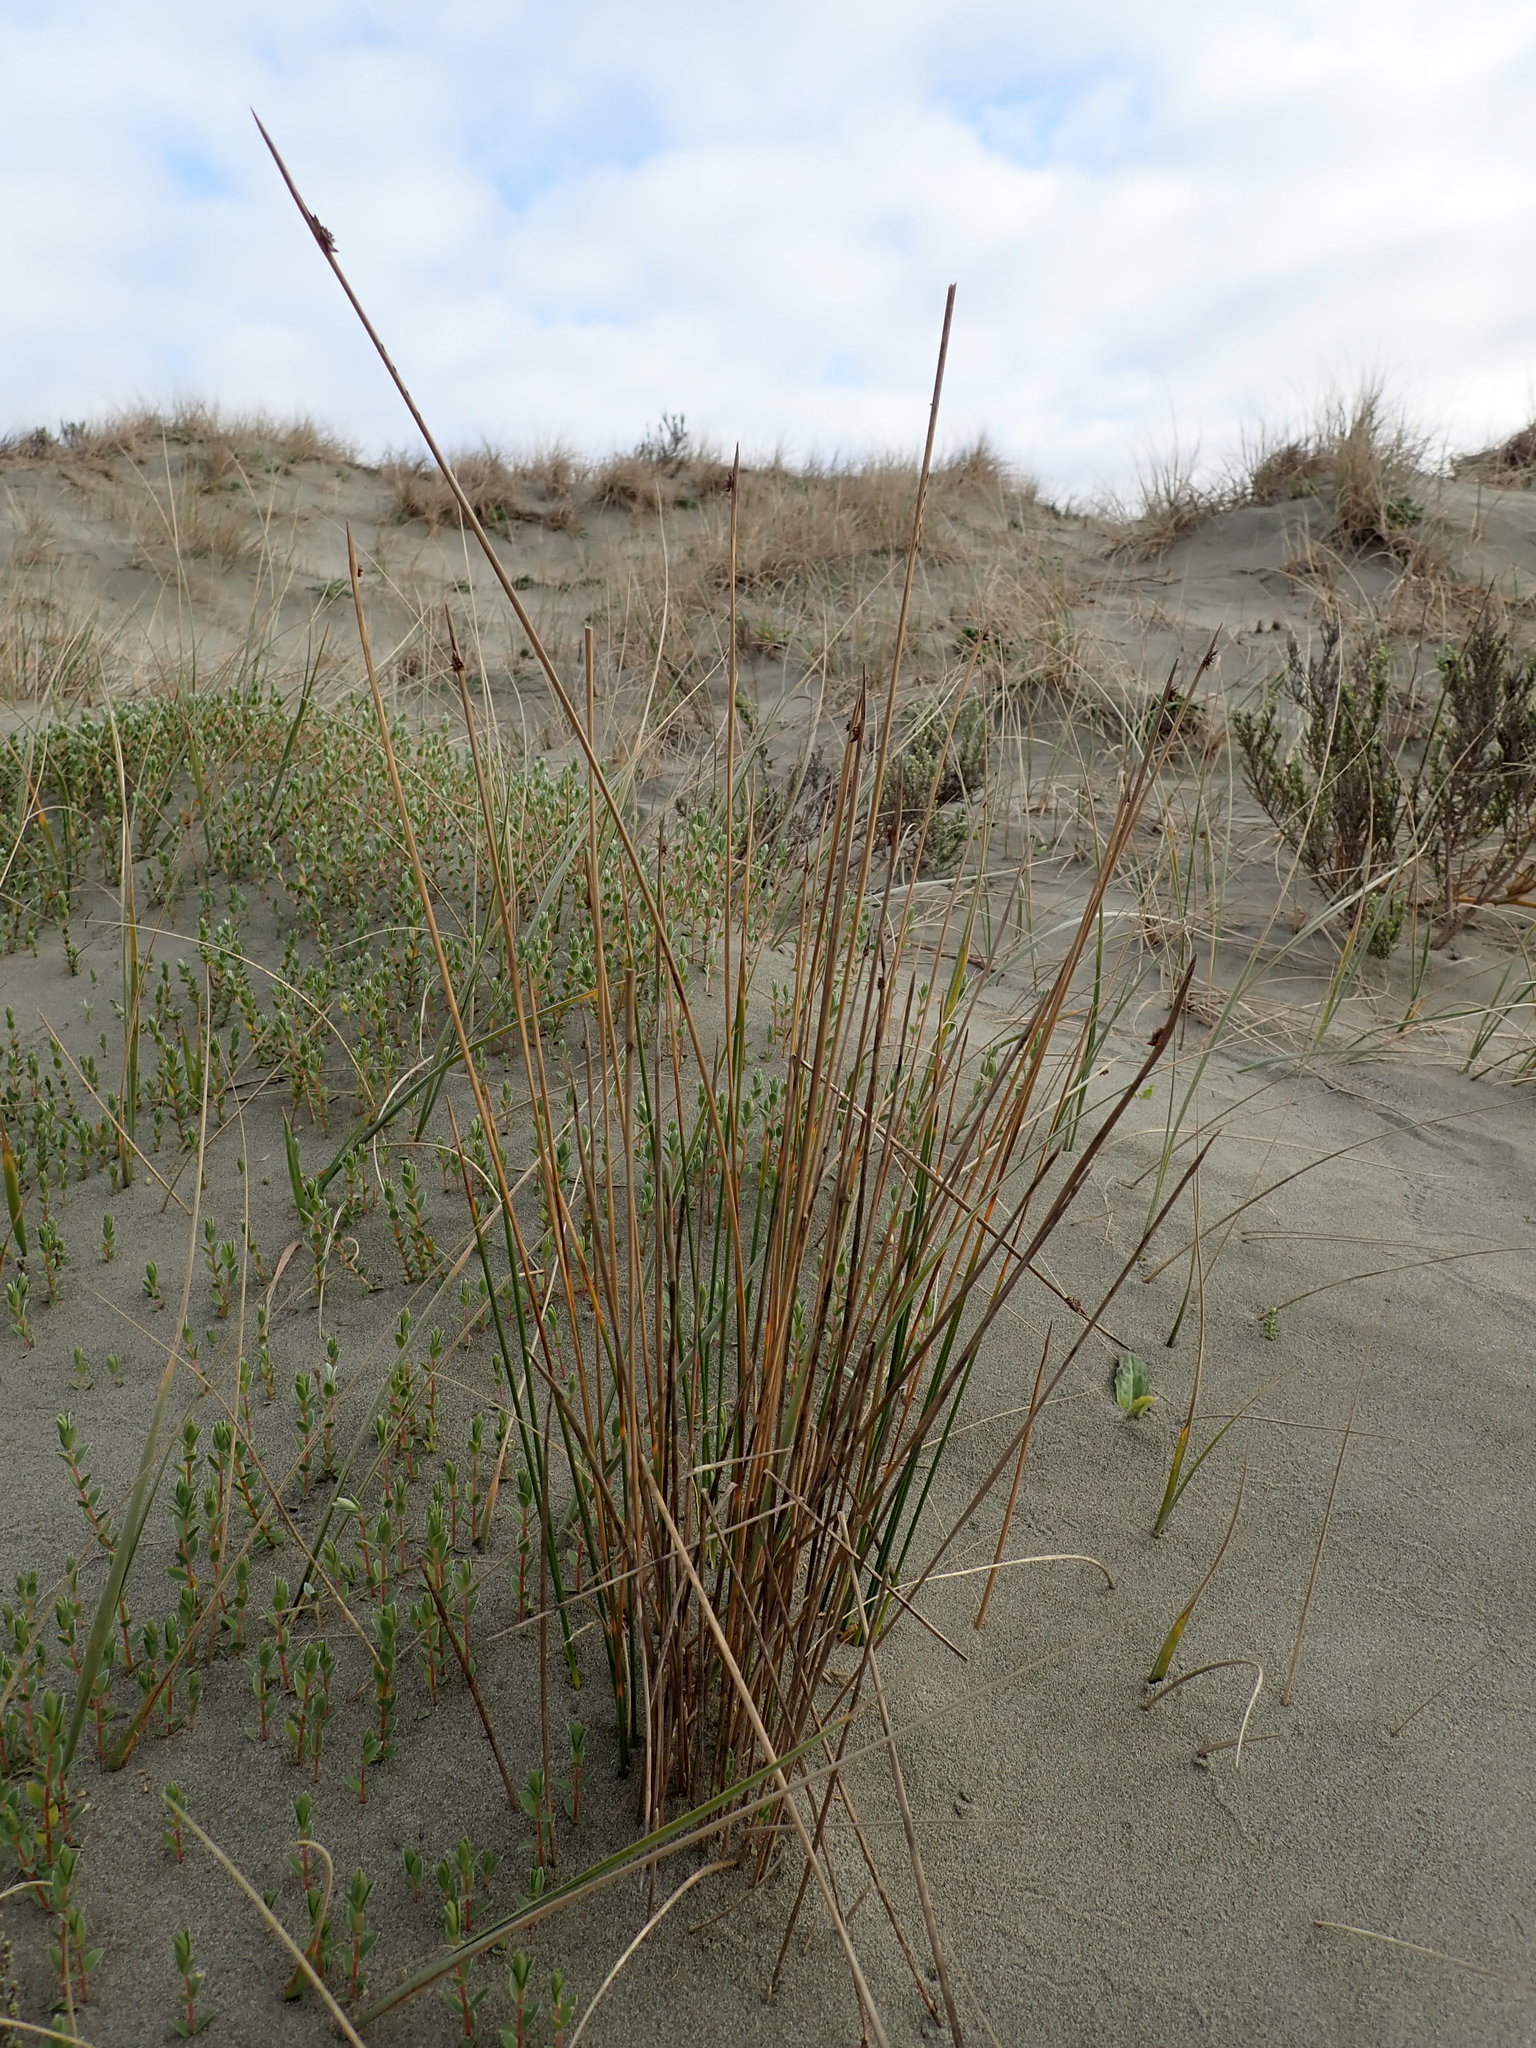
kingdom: Plantae
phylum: Tracheophyta
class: Liliopsida
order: Poales
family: Cyperaceae
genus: Ficinia
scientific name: Ficinia nodosa
